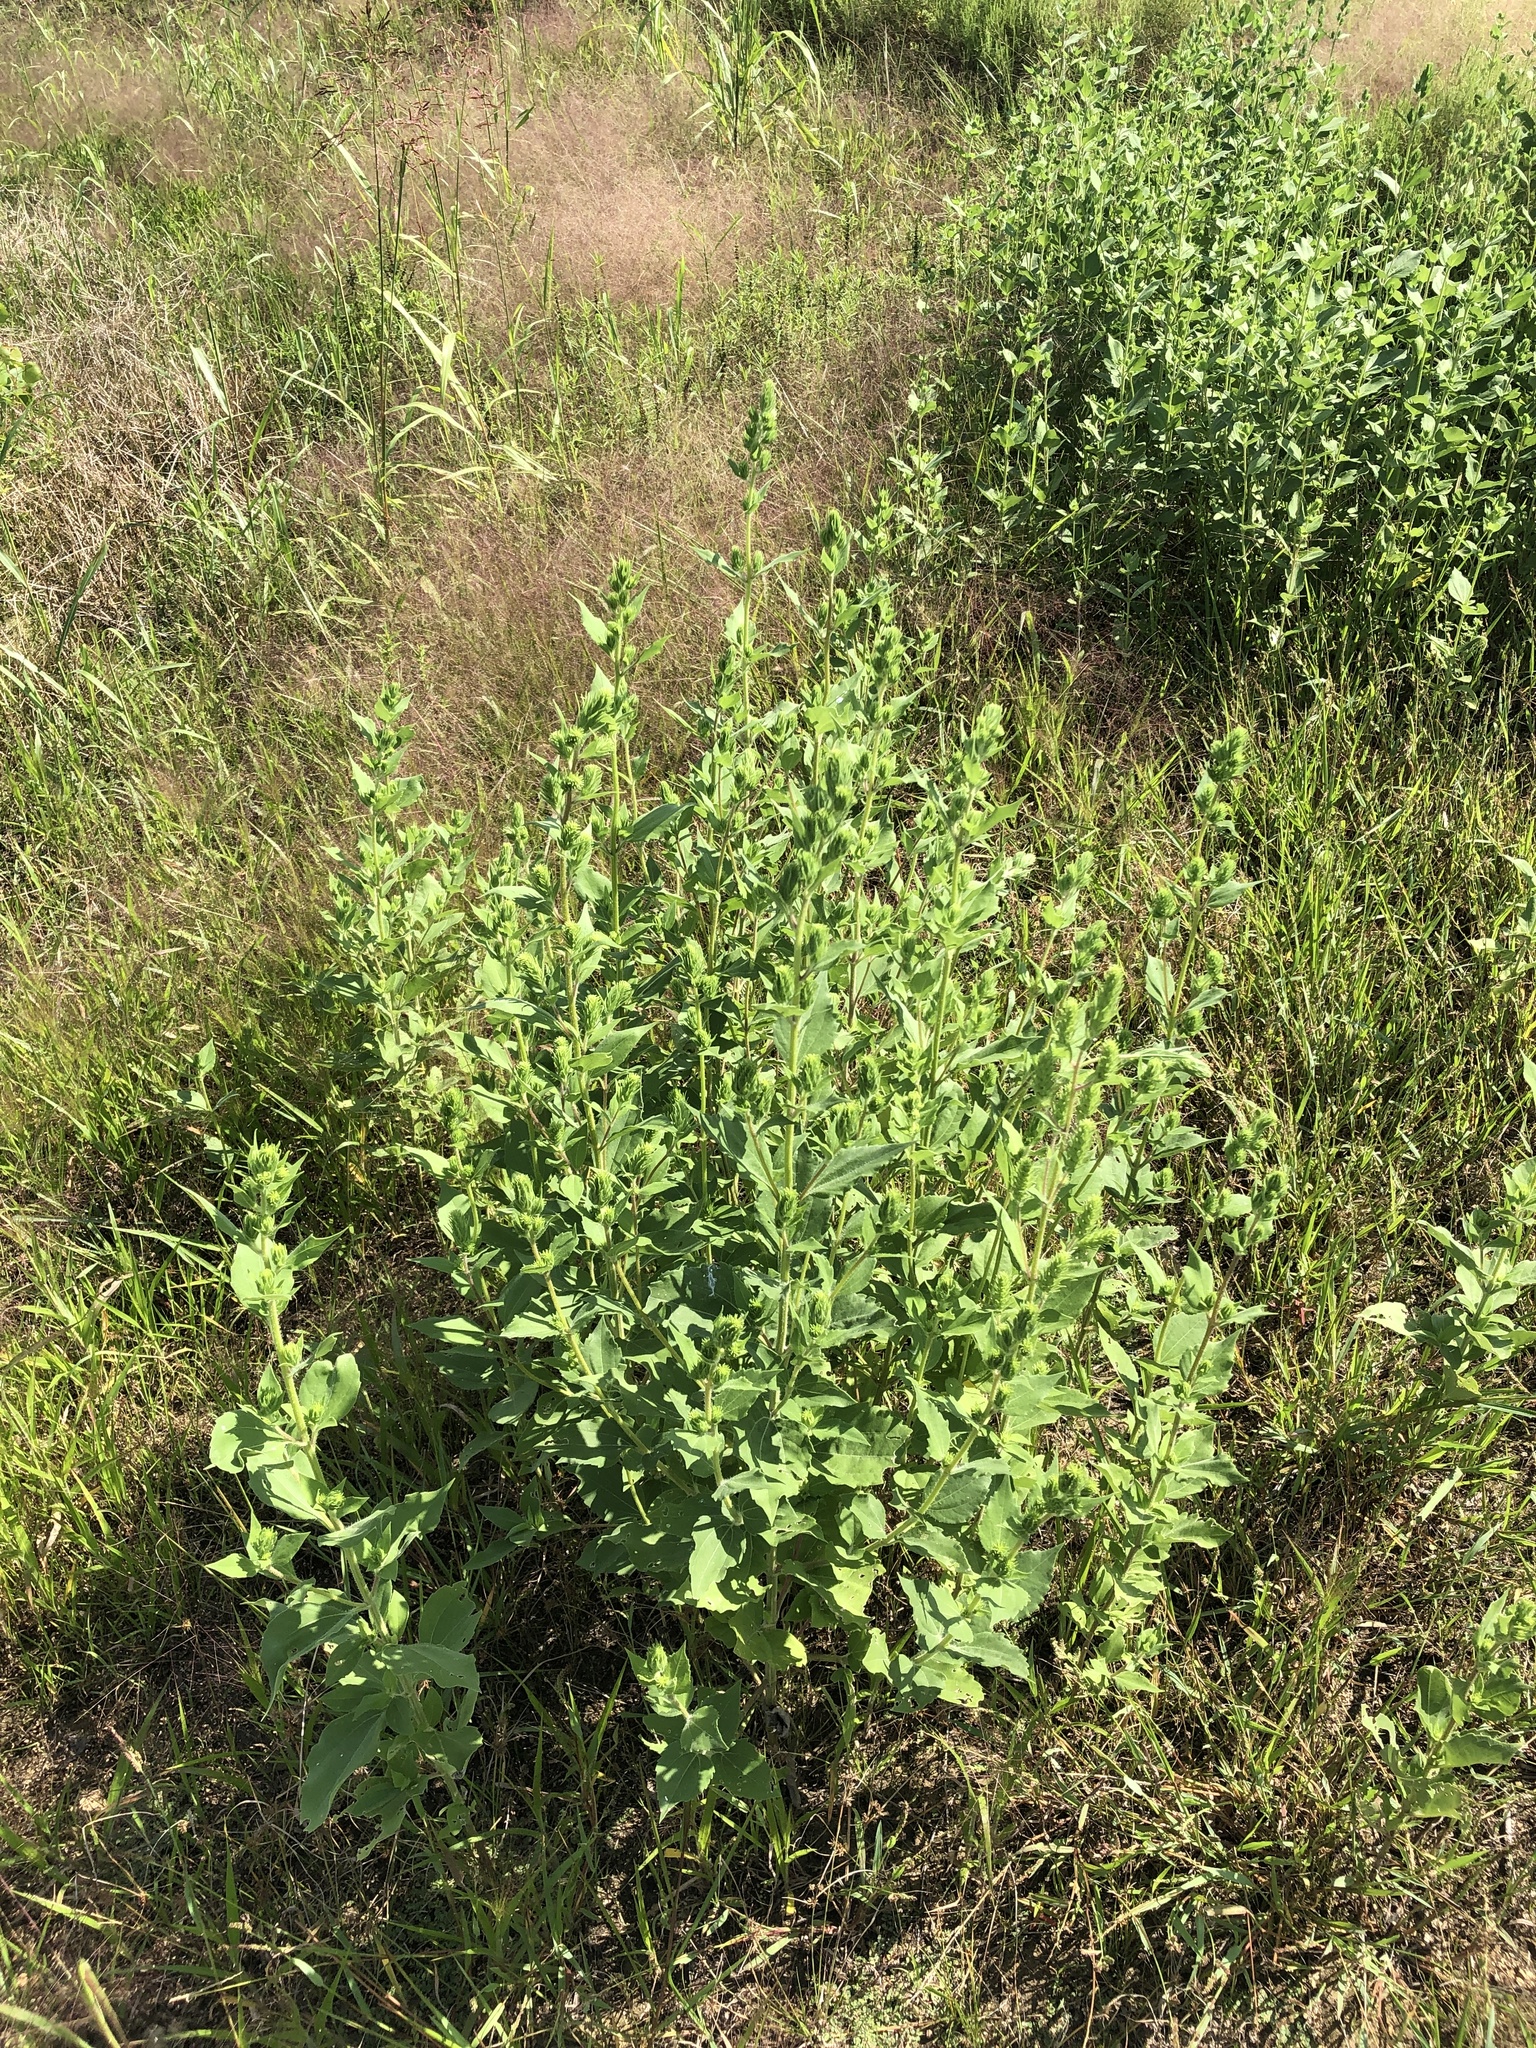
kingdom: Plantae
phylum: Tracheophyta
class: Magnoliopsida
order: Asterales
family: Asteraceae
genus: Iva
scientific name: Iva annua
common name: Marsh-elder
